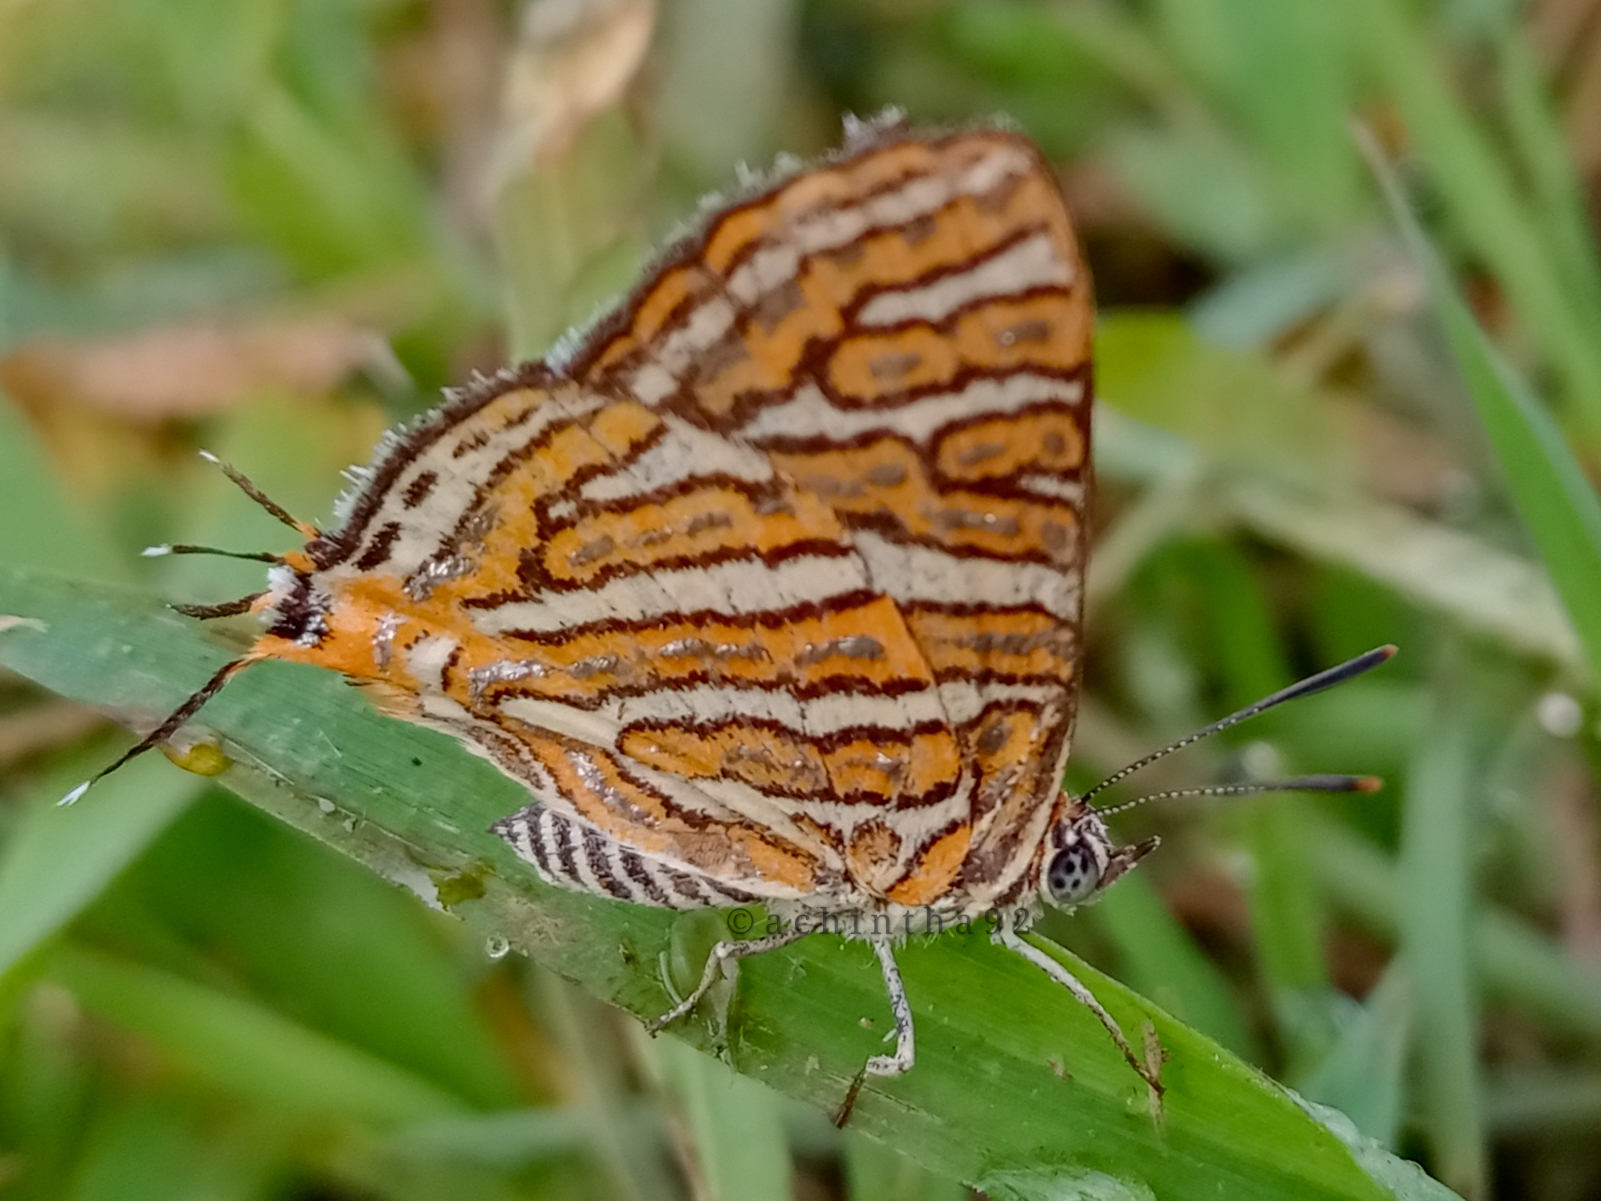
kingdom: Animalia
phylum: Arthropoda
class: Insecta
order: Lepidoptera
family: Lycaenidae
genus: Cigaritis
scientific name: Cigaritis vulcanus
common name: Common silverline
